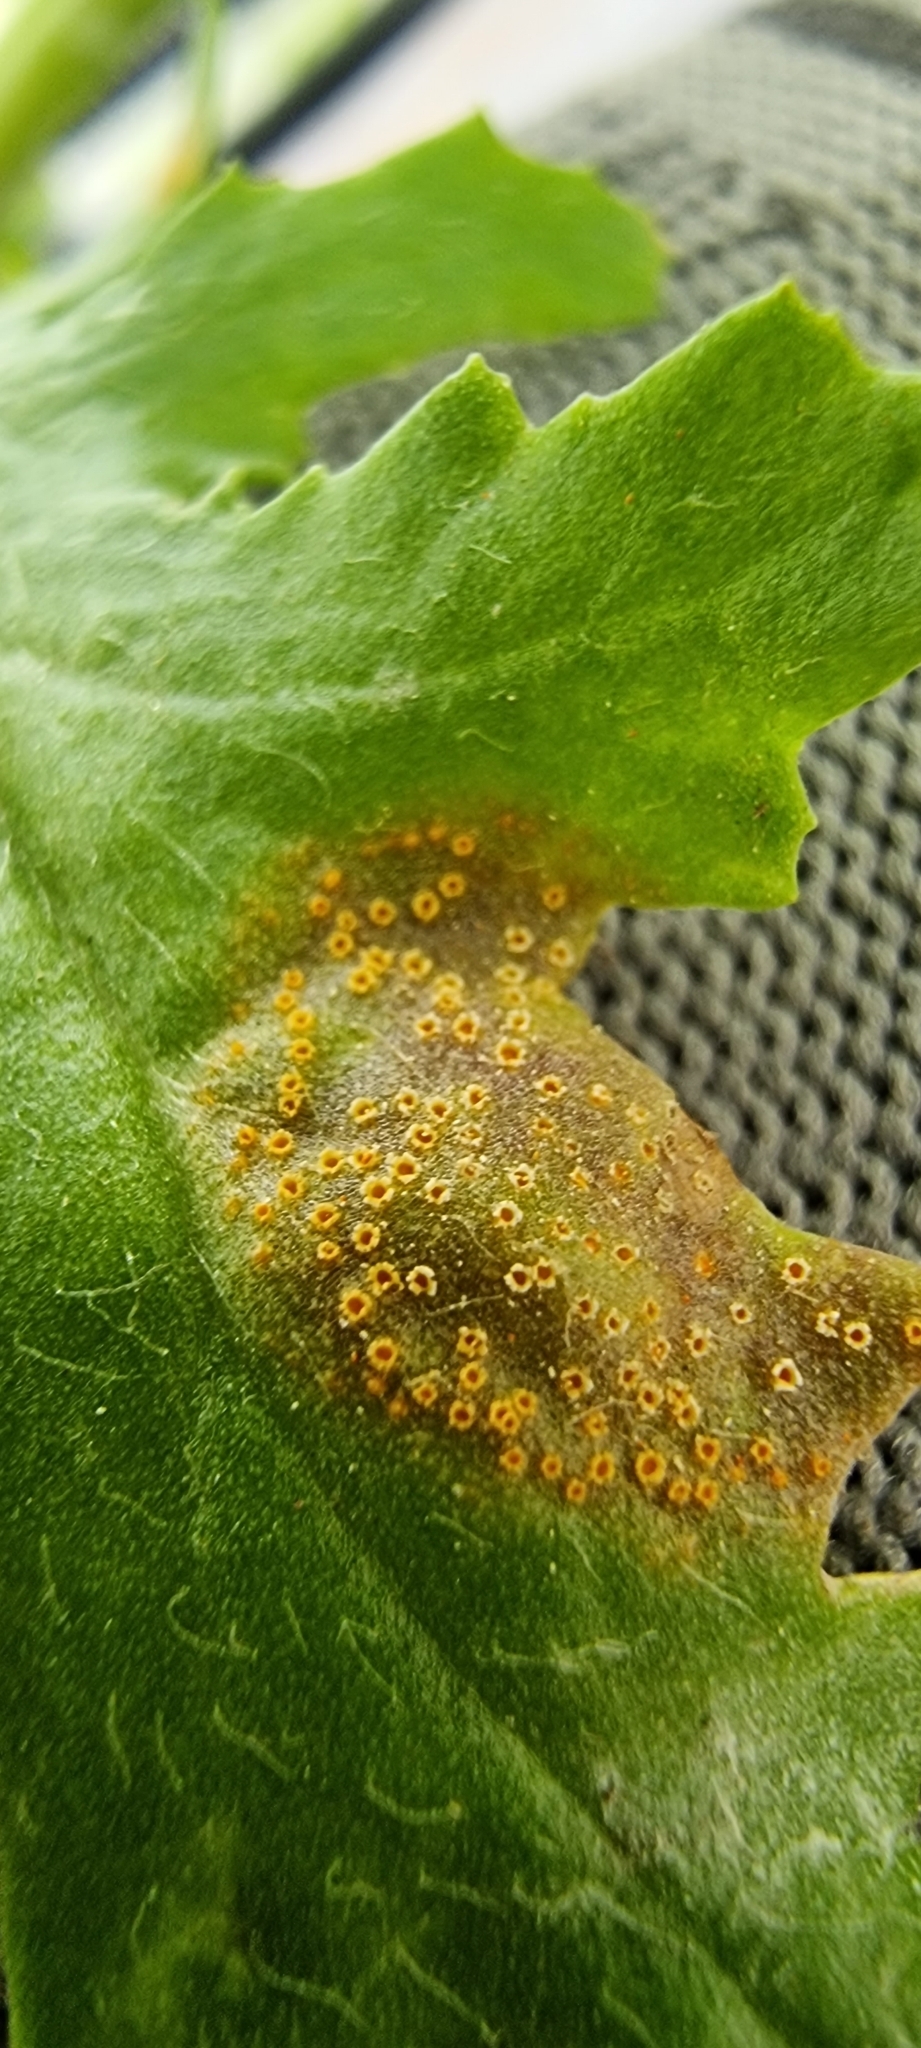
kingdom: Fungi
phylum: Basidiomycota
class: Pucciniomycetes
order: Pucciniales
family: Pucciniaceae
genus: Puccinia
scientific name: Puccinia lagenophorae
